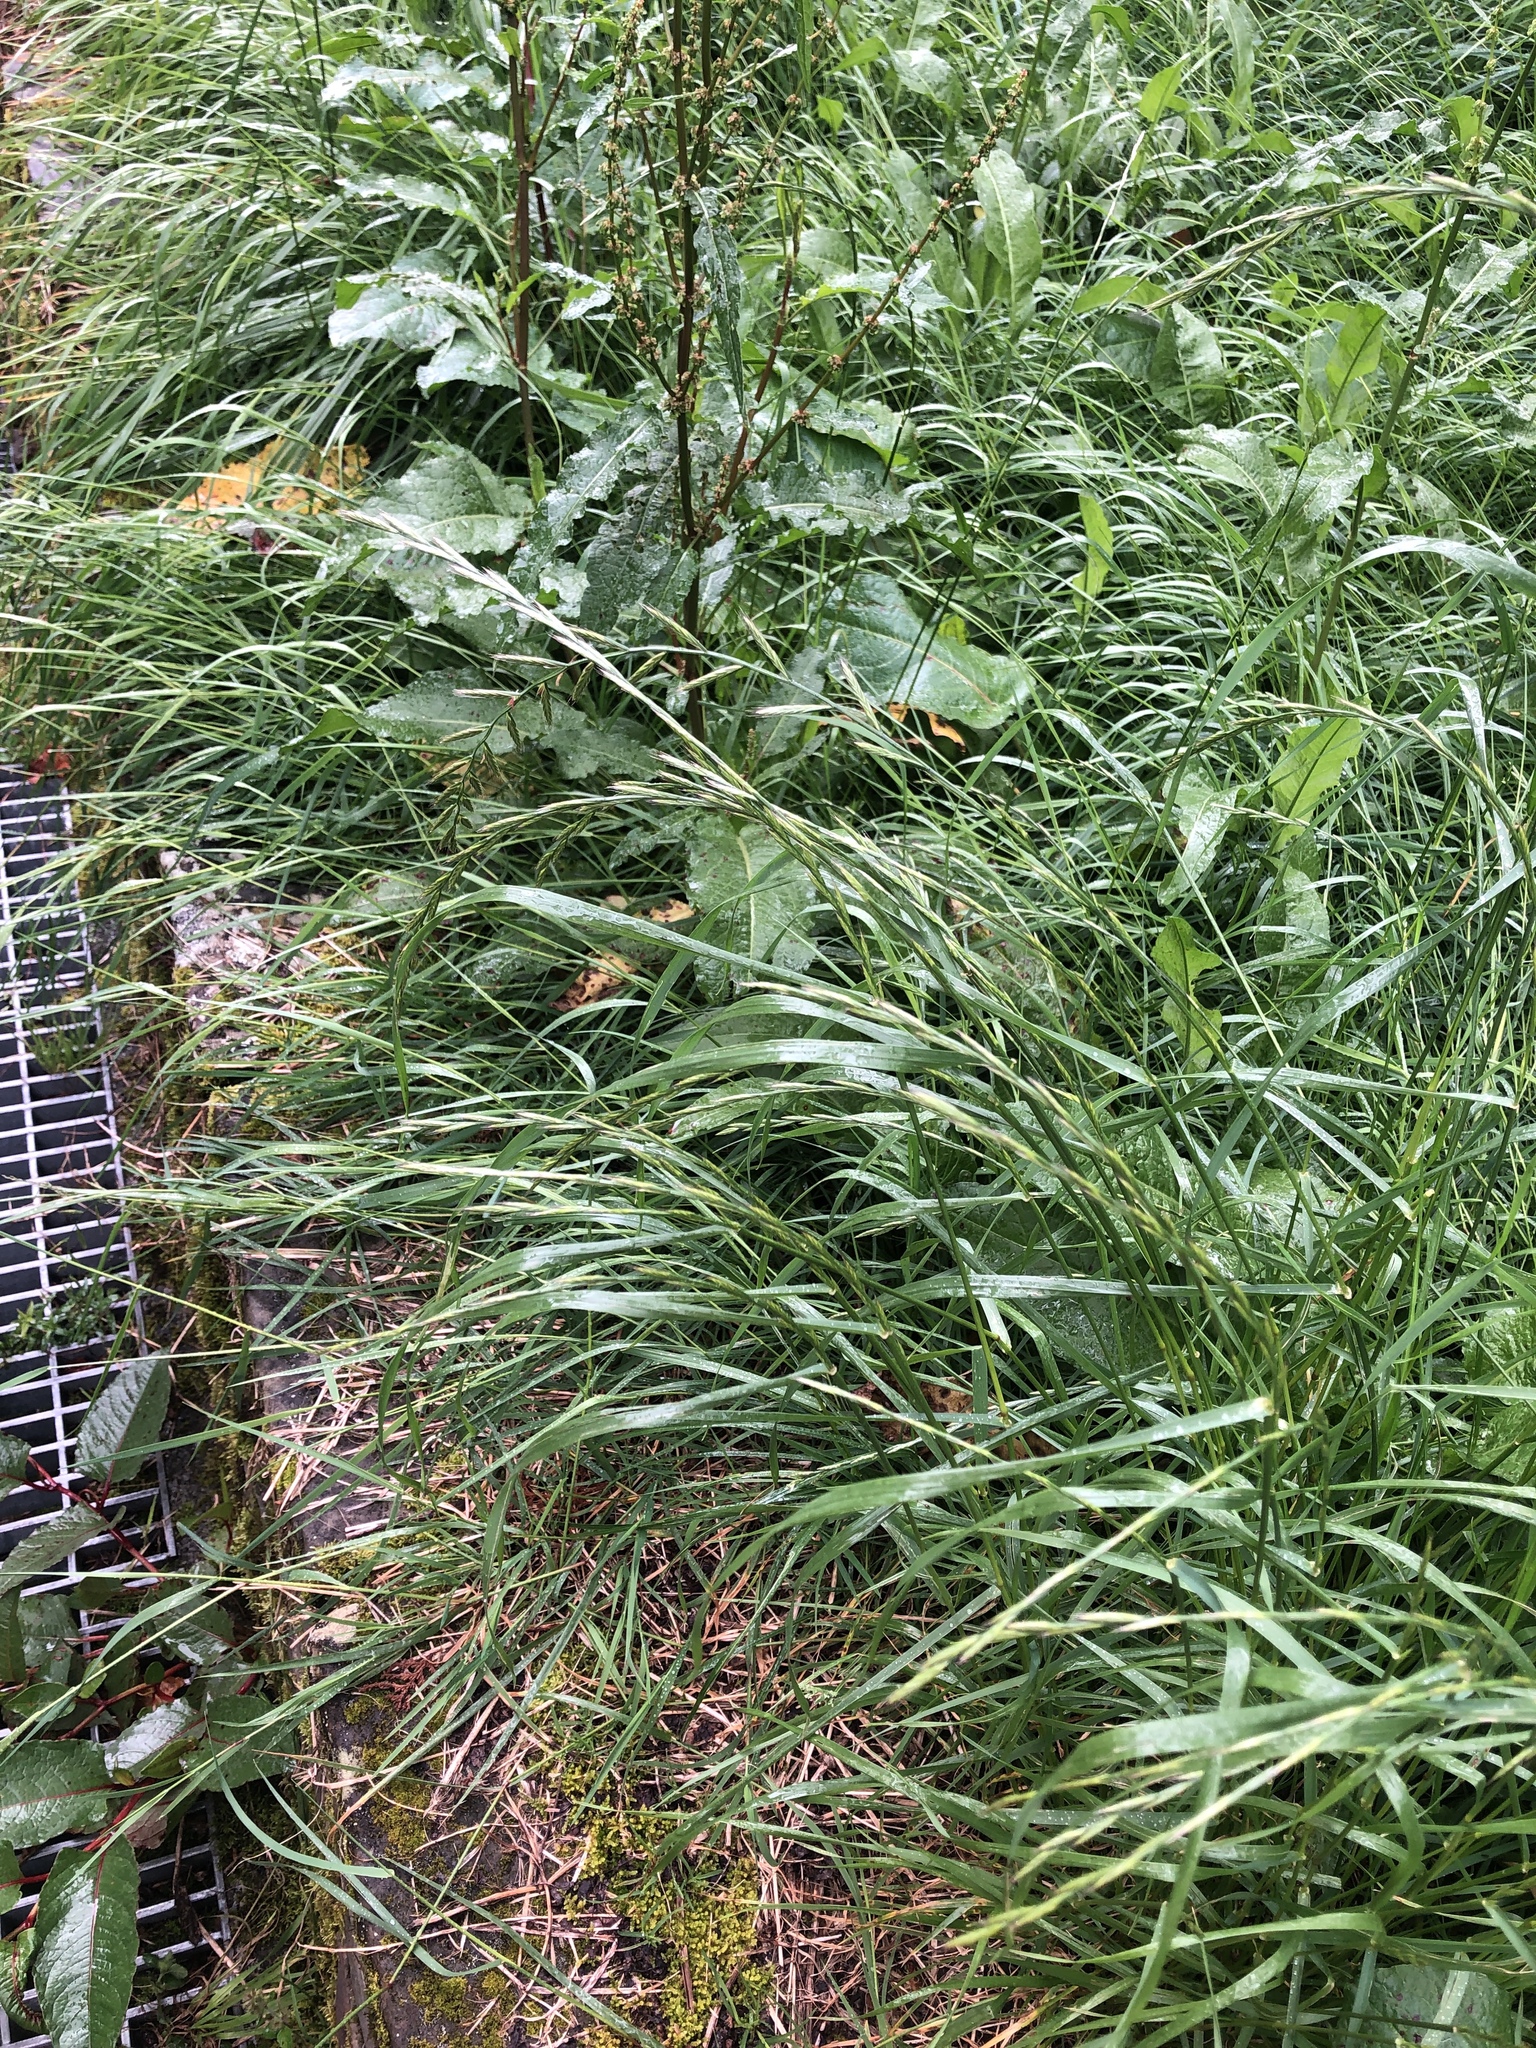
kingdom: Plantae
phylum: Tracheophyta
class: Liliopsida
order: Poales
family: Poaceae
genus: Lolium
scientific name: Lolium multiflorum
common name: Annual ryegrass
